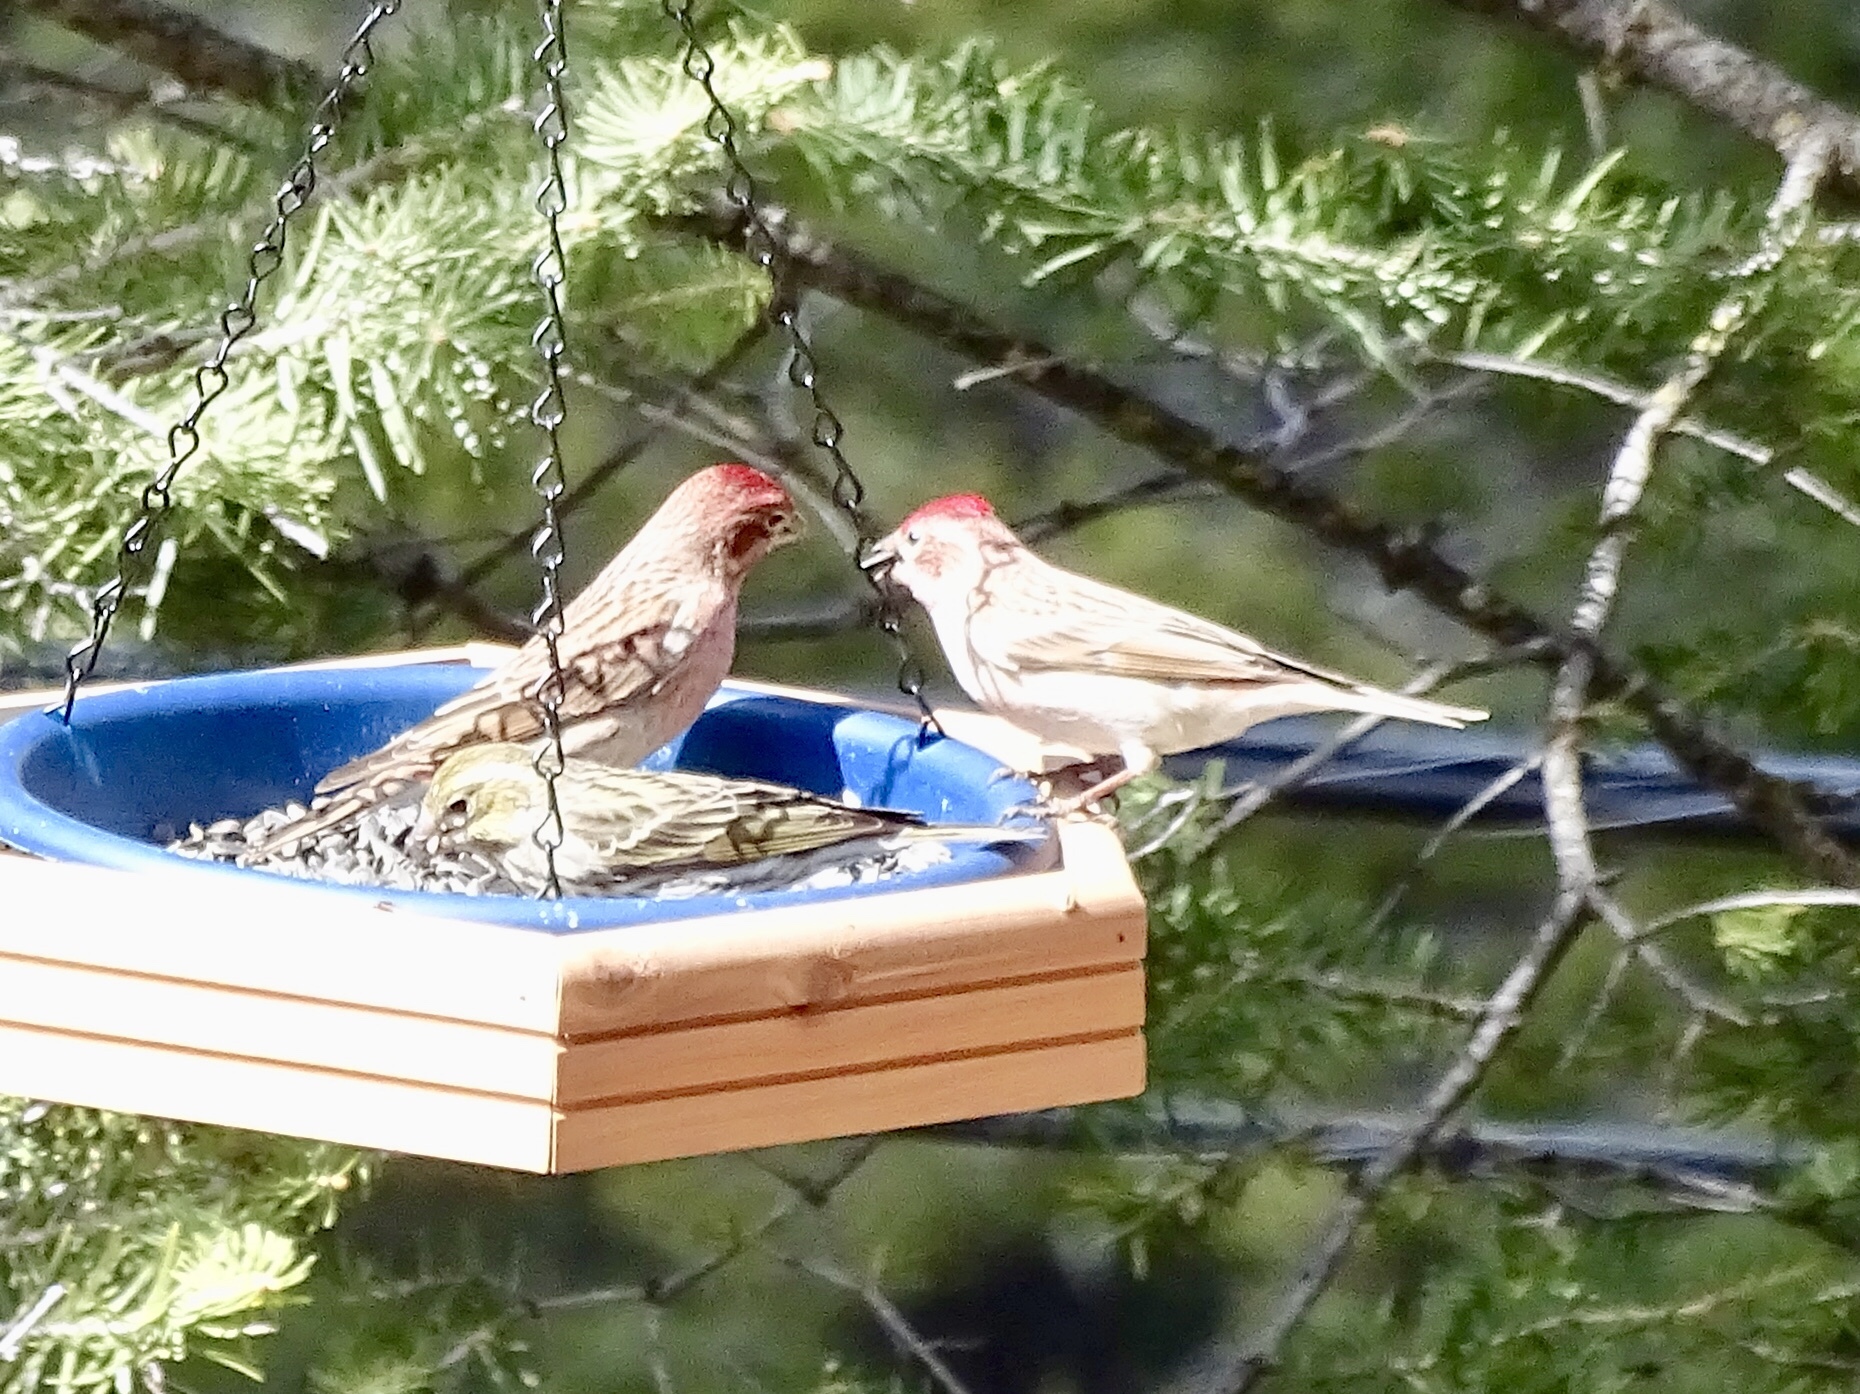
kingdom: Animalia
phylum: Chordata
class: Aves
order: Passeriformes
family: Fringillidae
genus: Haemorhous
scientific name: Haemorhous cassinii
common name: Cassin's finch
